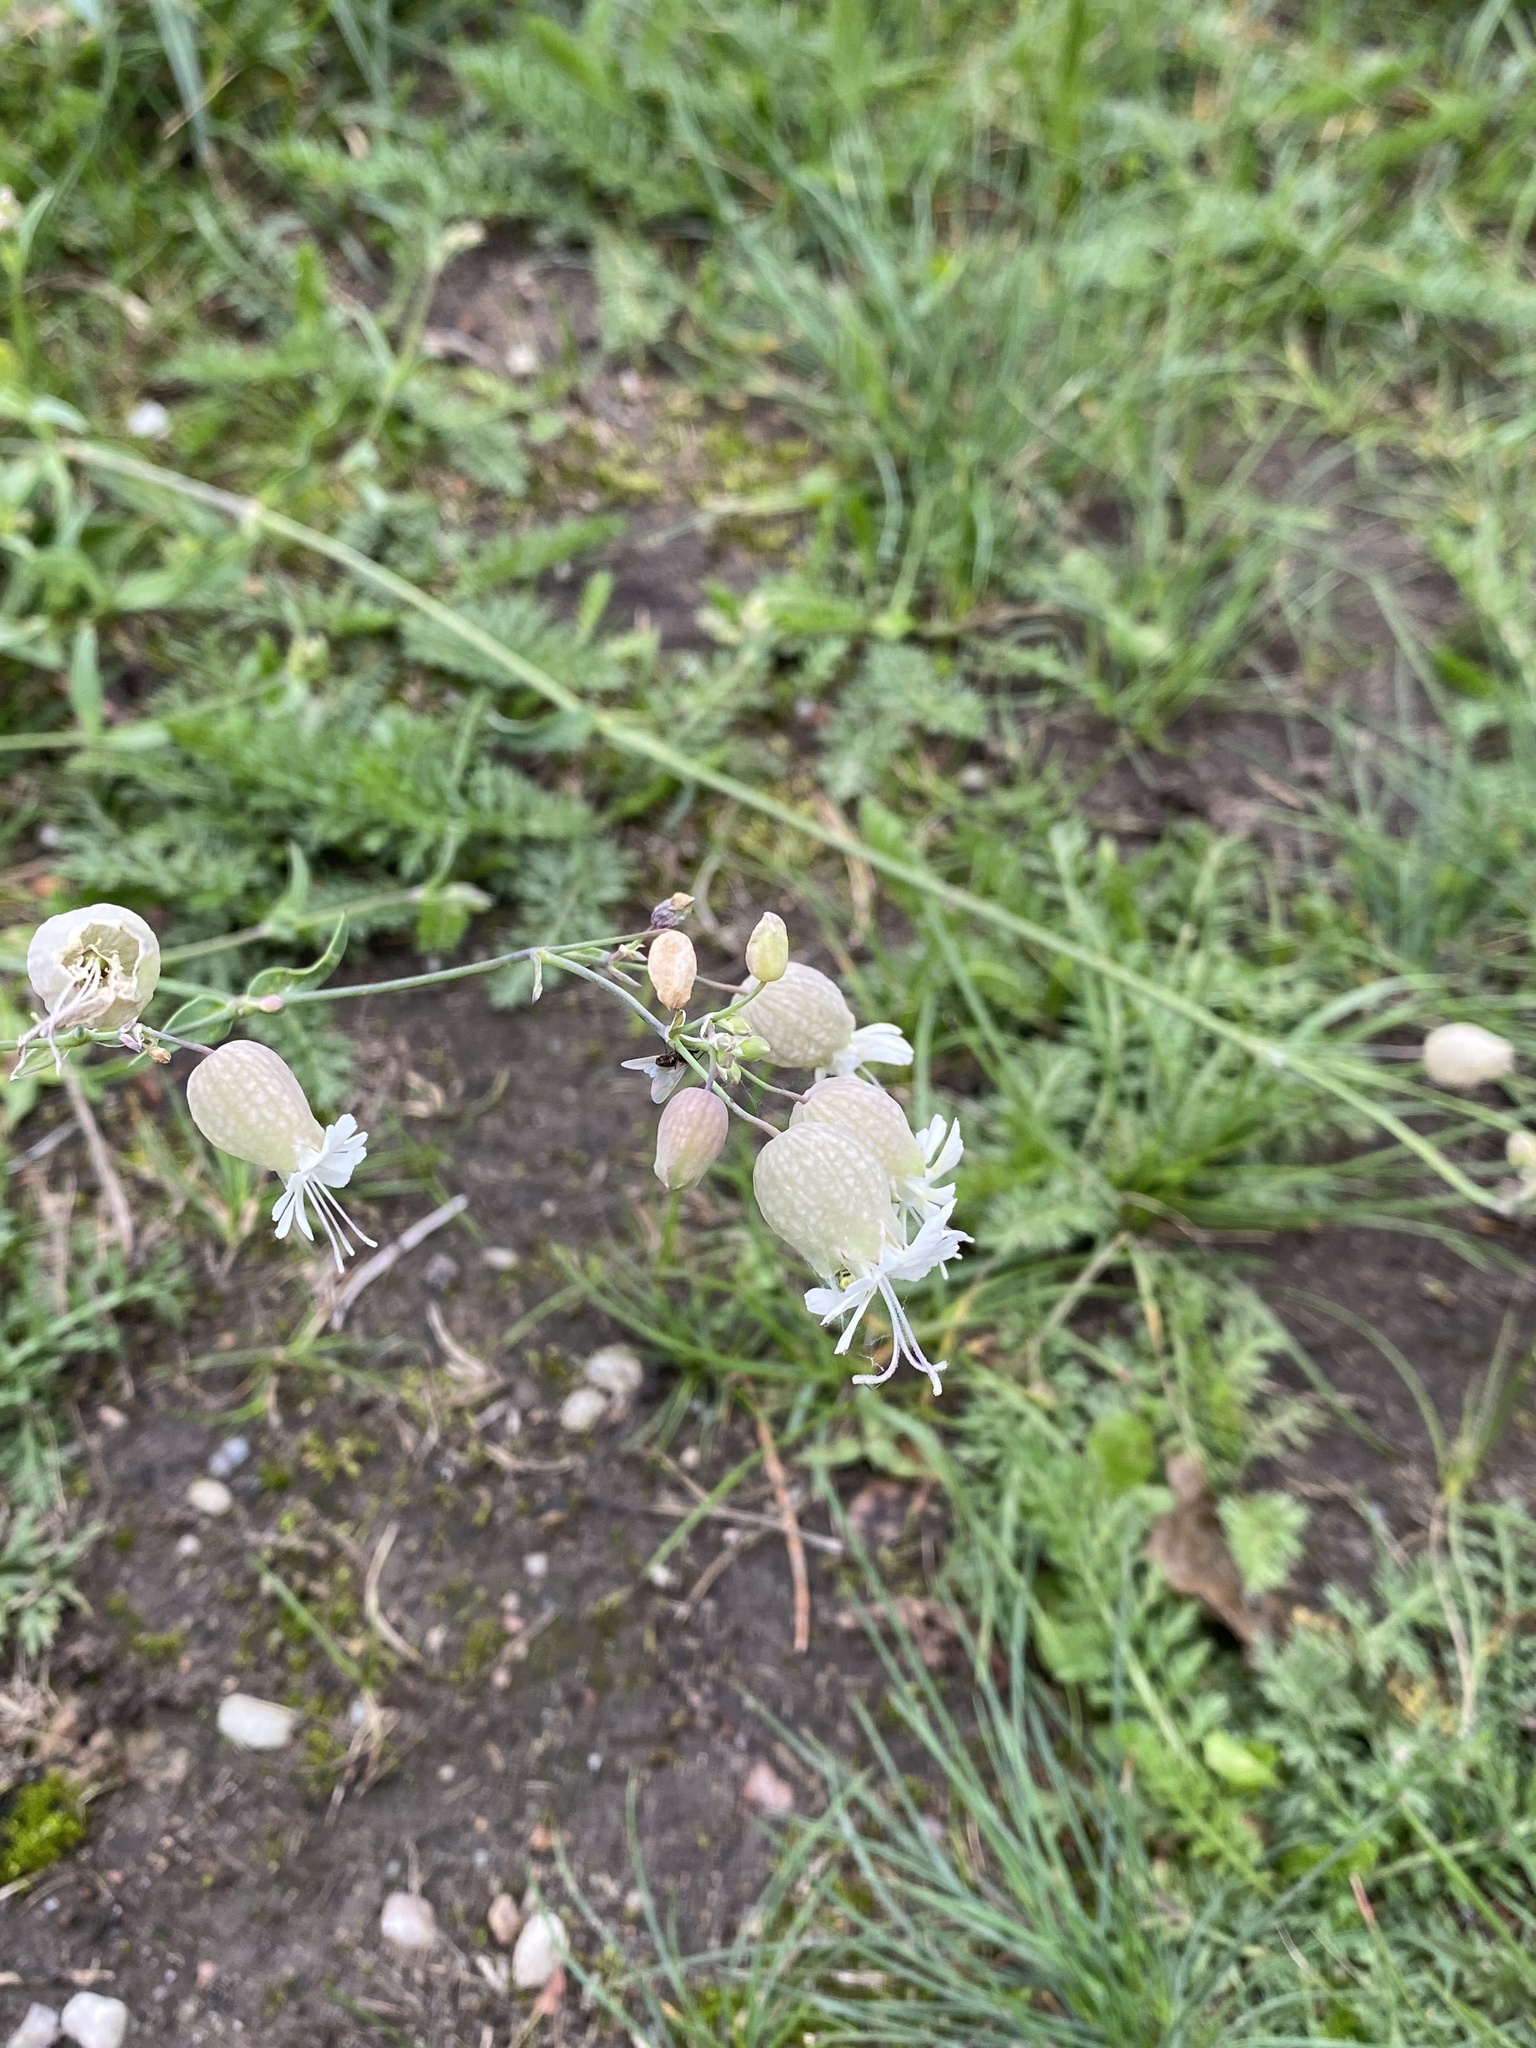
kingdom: Plantae
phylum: Tracheophyta
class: Magnoliopsida
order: Caryophyllales
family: Caryophyllaceae
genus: Silene
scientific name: Silene vulgaris
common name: Bladder campion
